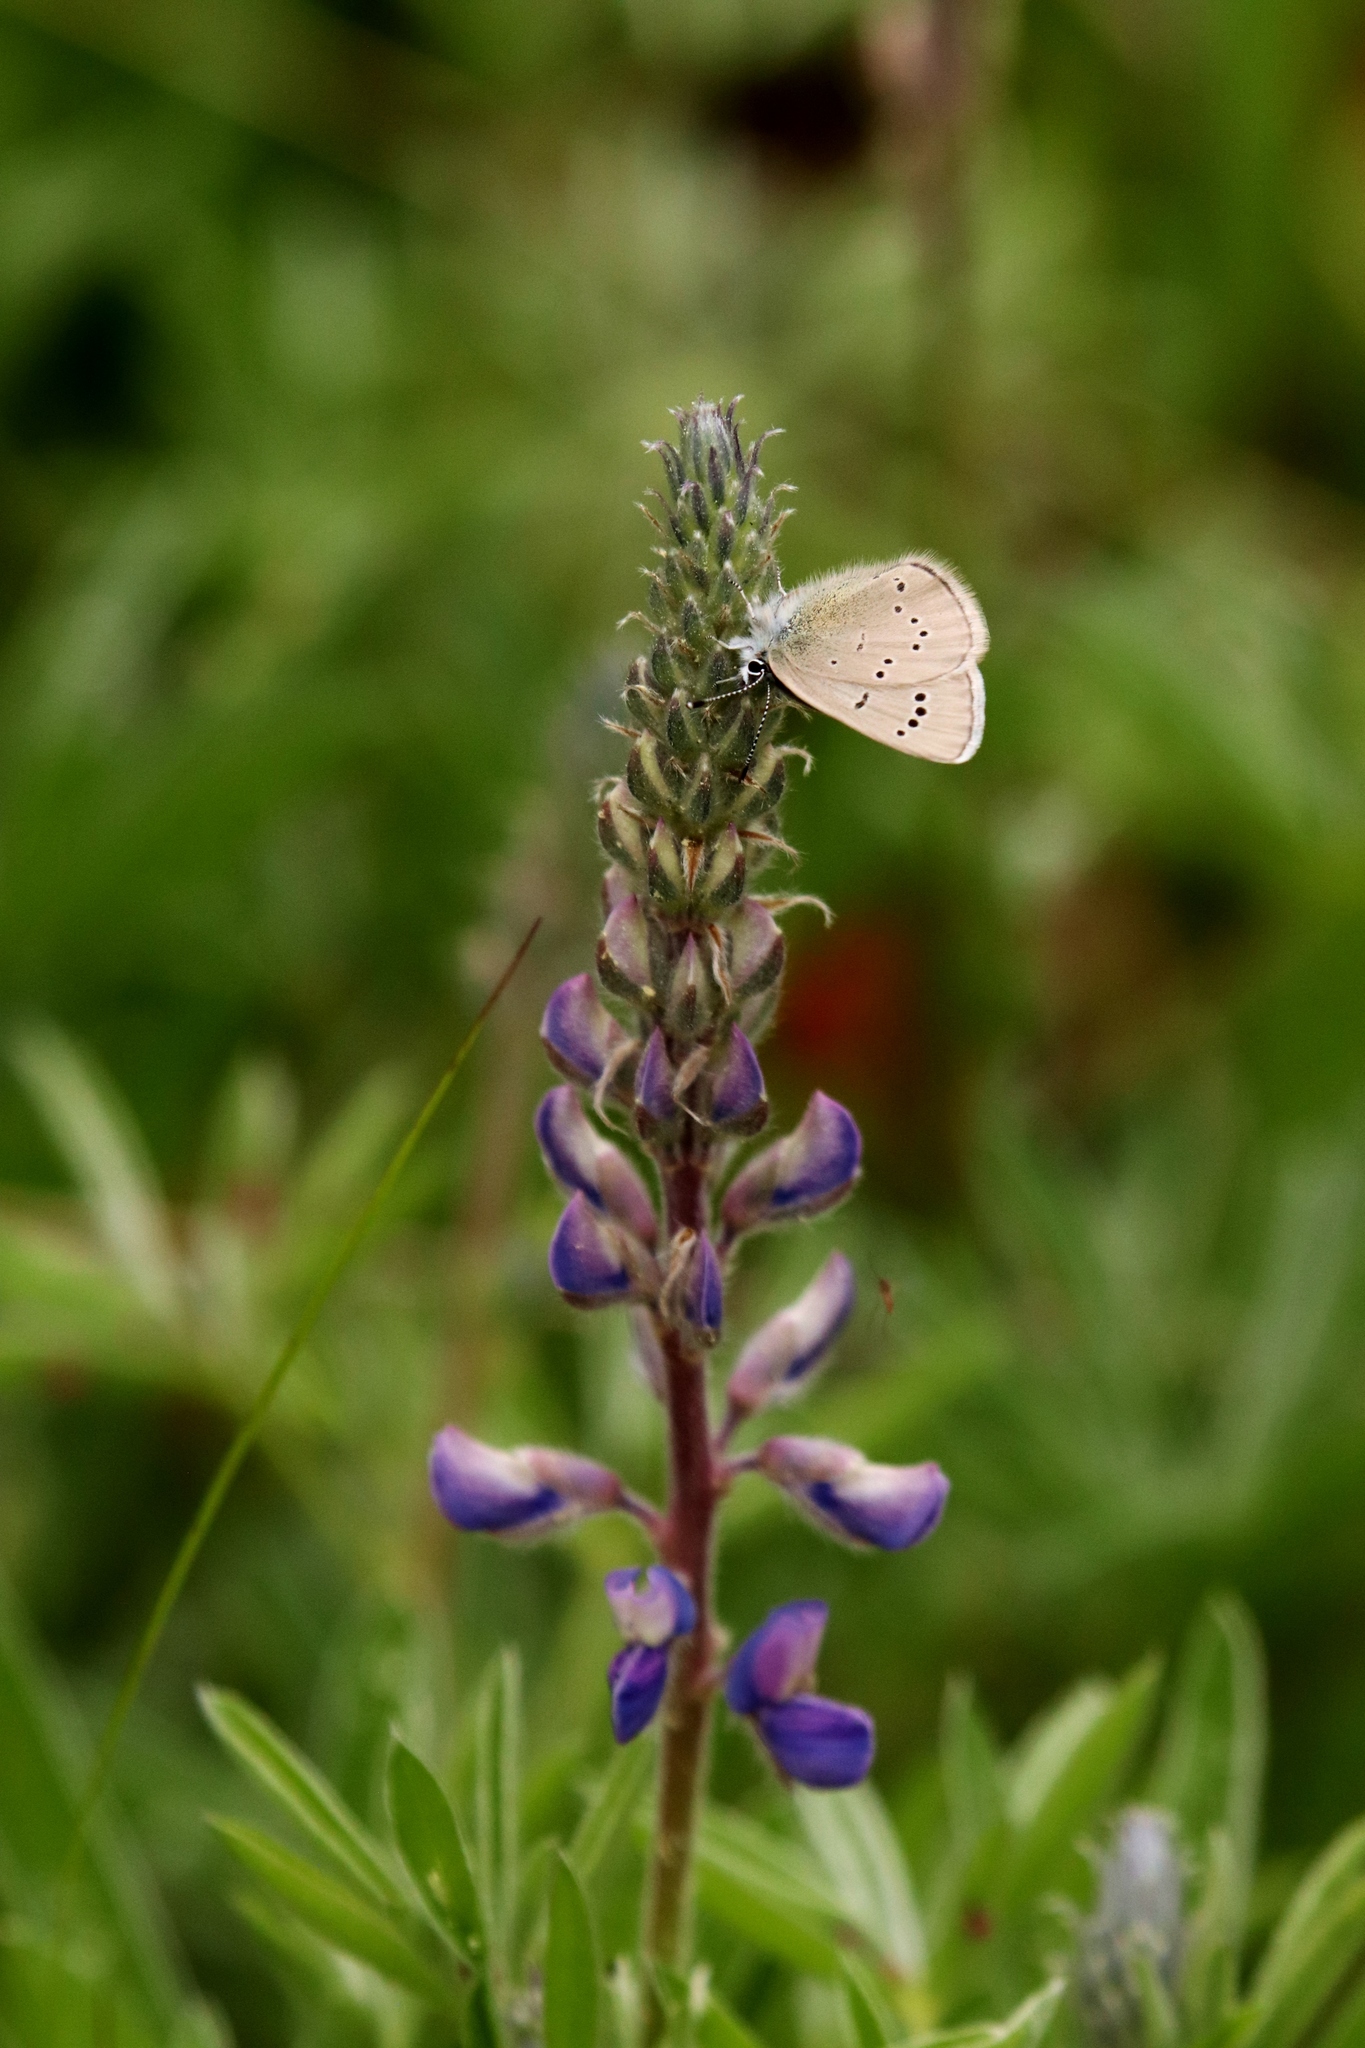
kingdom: Animalia
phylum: Arthropoda
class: Insecta
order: Lepidoptera
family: Lycaenidae
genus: Glaucopsyche
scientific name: Glaucopsyche lygdamus
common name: Silvery blue
